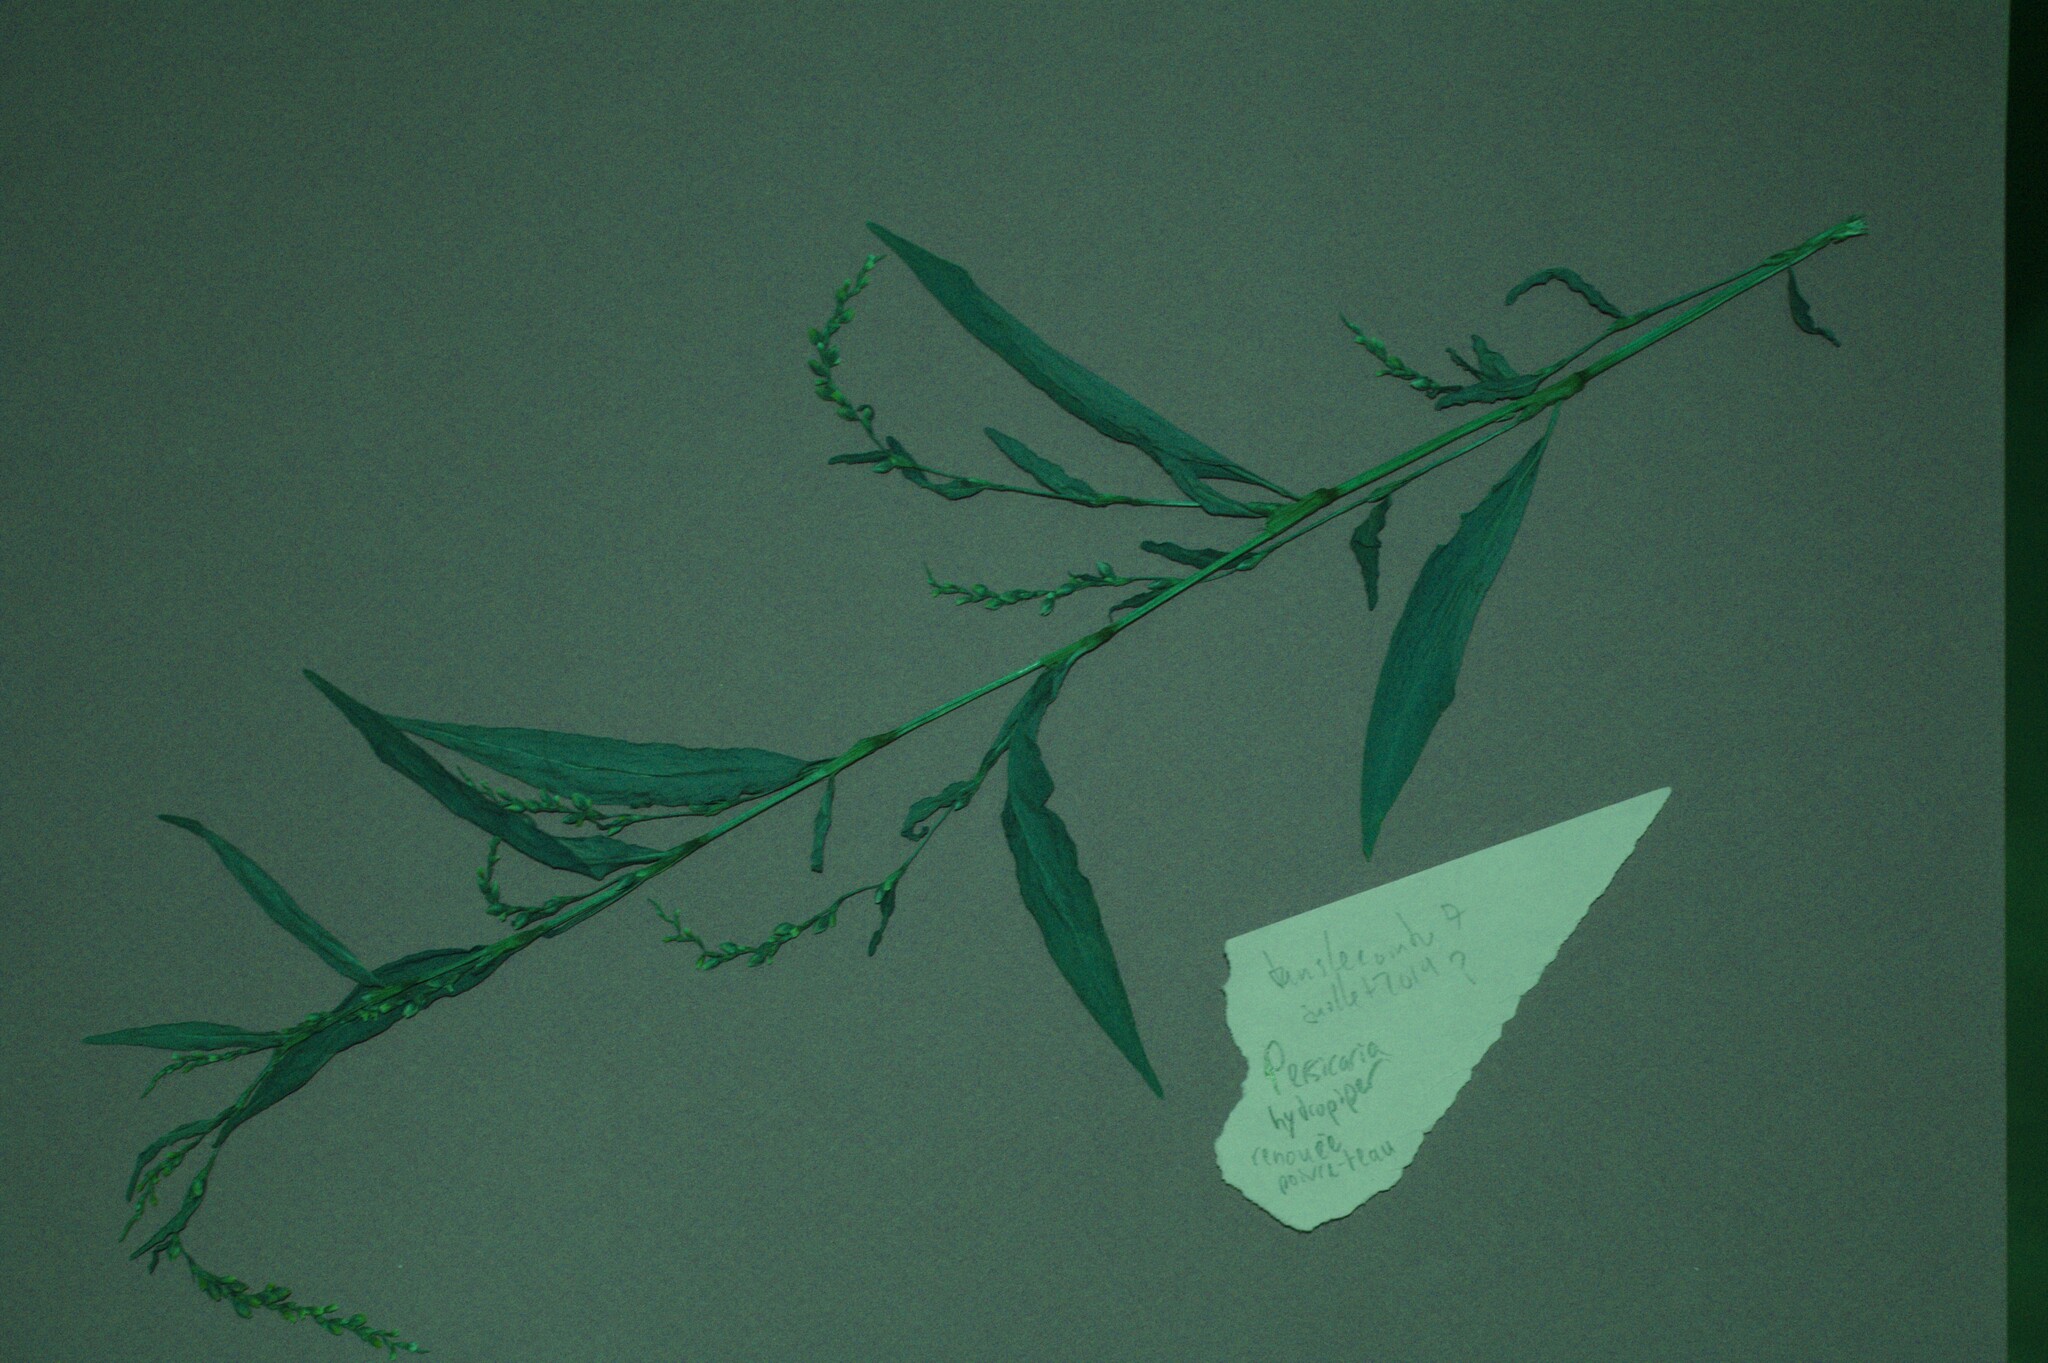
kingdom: Plantae
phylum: Tracheophyta
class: Magnoliopsida
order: Caryophyllales
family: Polygonaceae
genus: Persicaria
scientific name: Persicaria hydropiper
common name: Water-pepper
